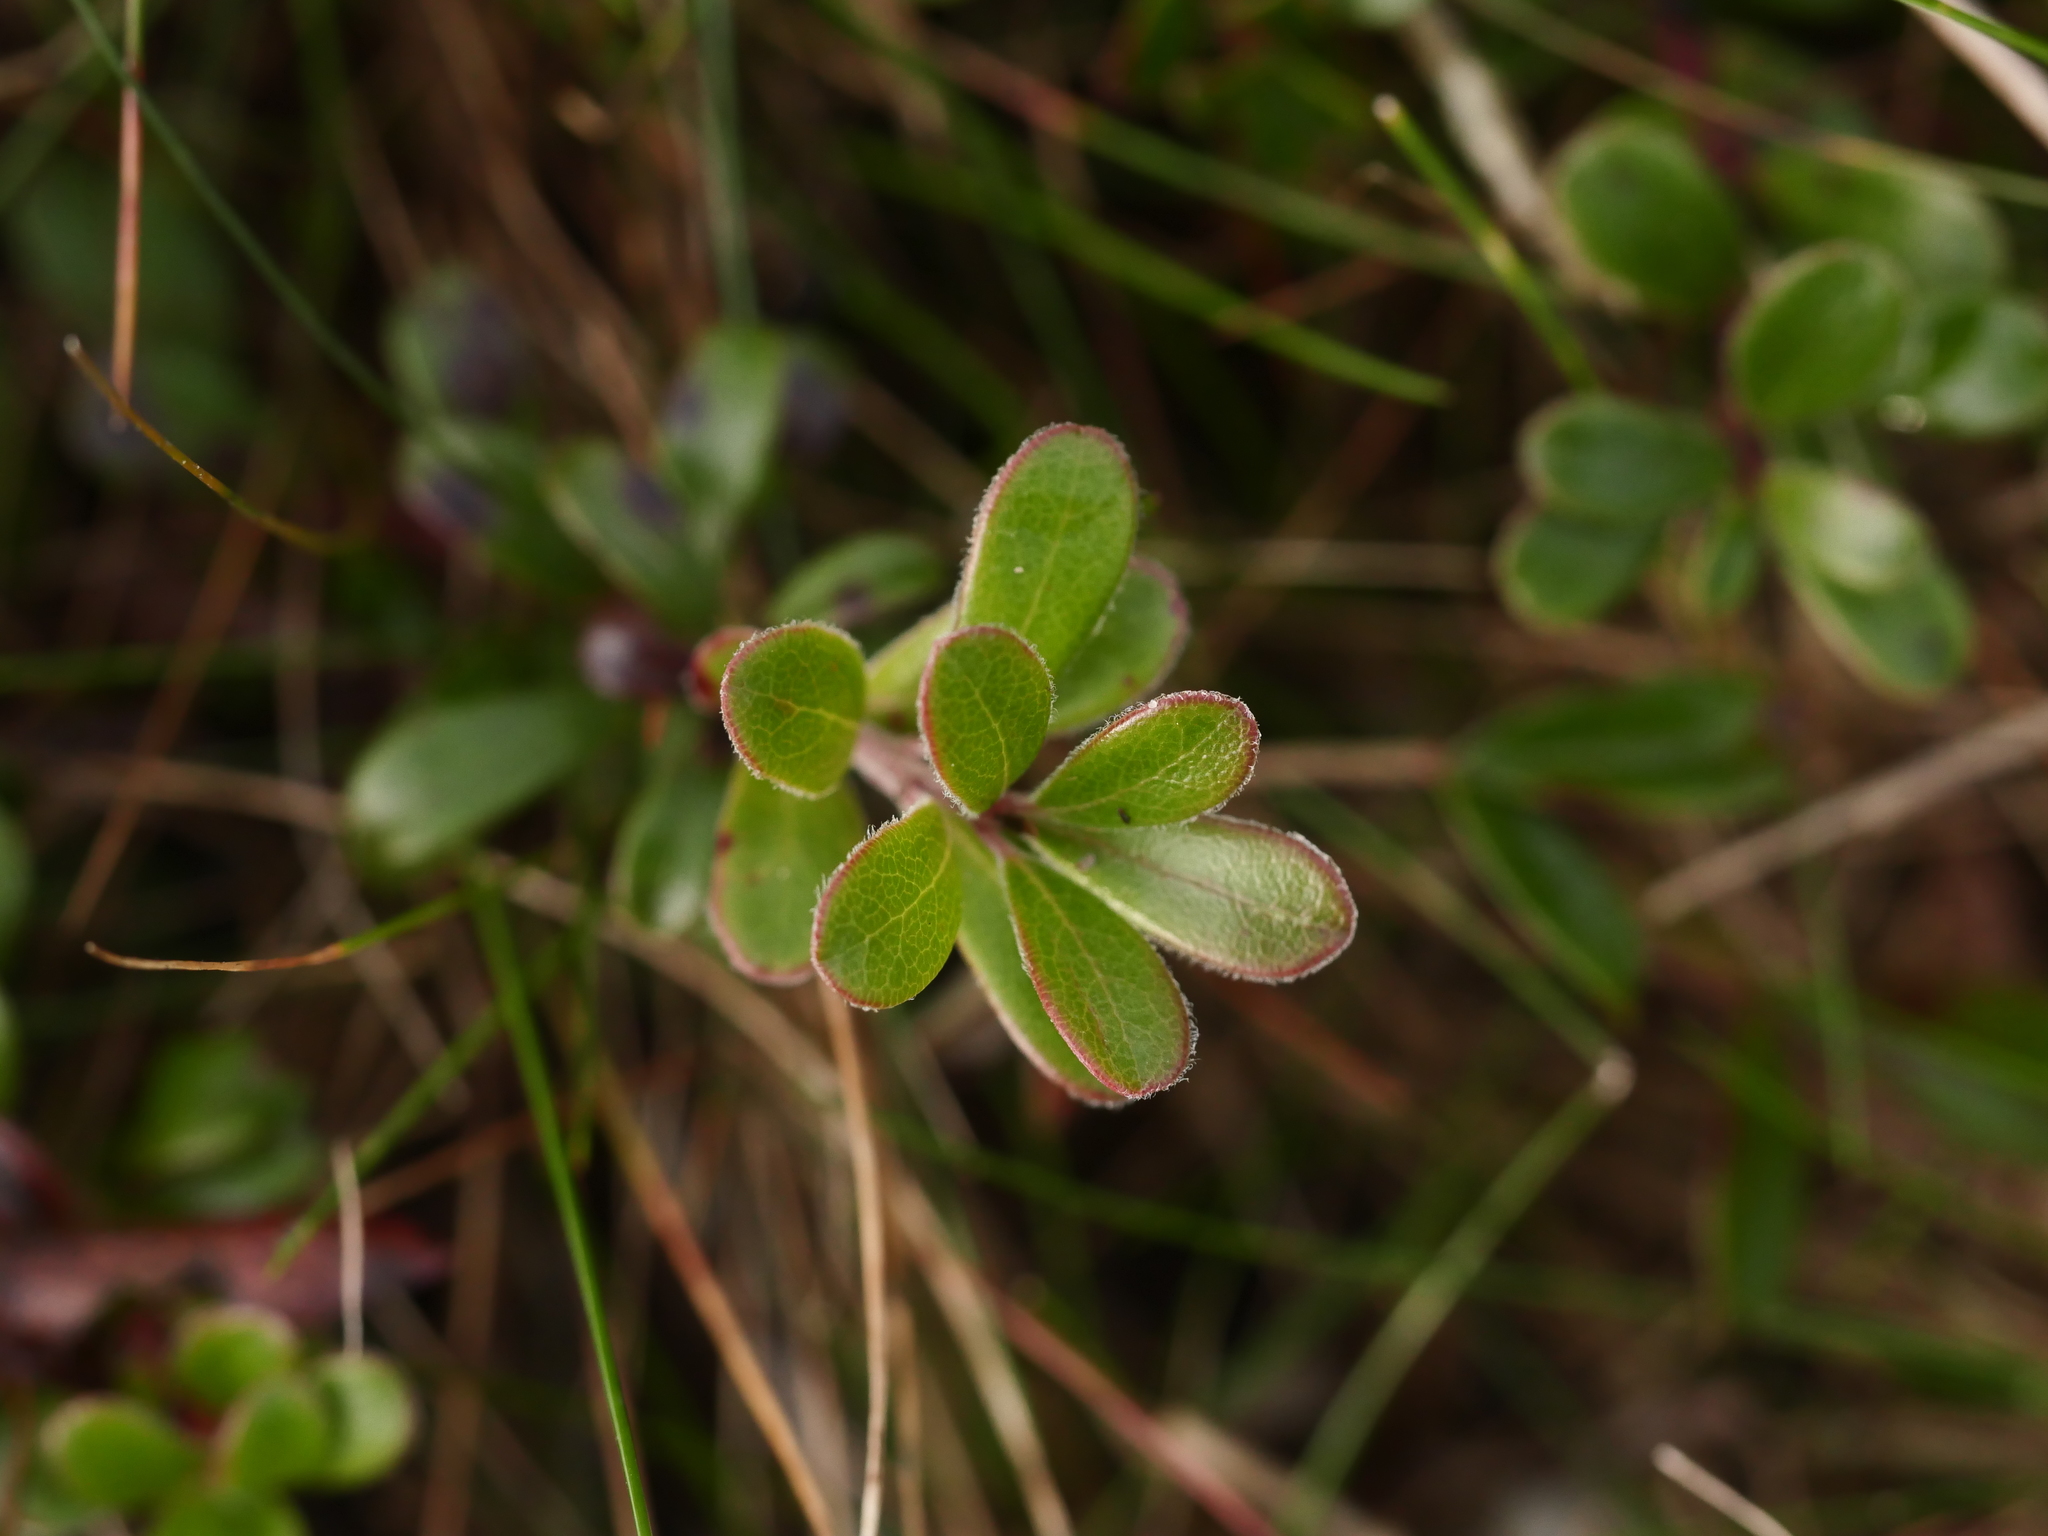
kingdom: Plantae
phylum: Tracheophyta
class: Magnoliopsida
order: Ericales
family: Ericaceae
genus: Arctostaphylos
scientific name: Arctostaphylos uva-ursi
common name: Bearberry
